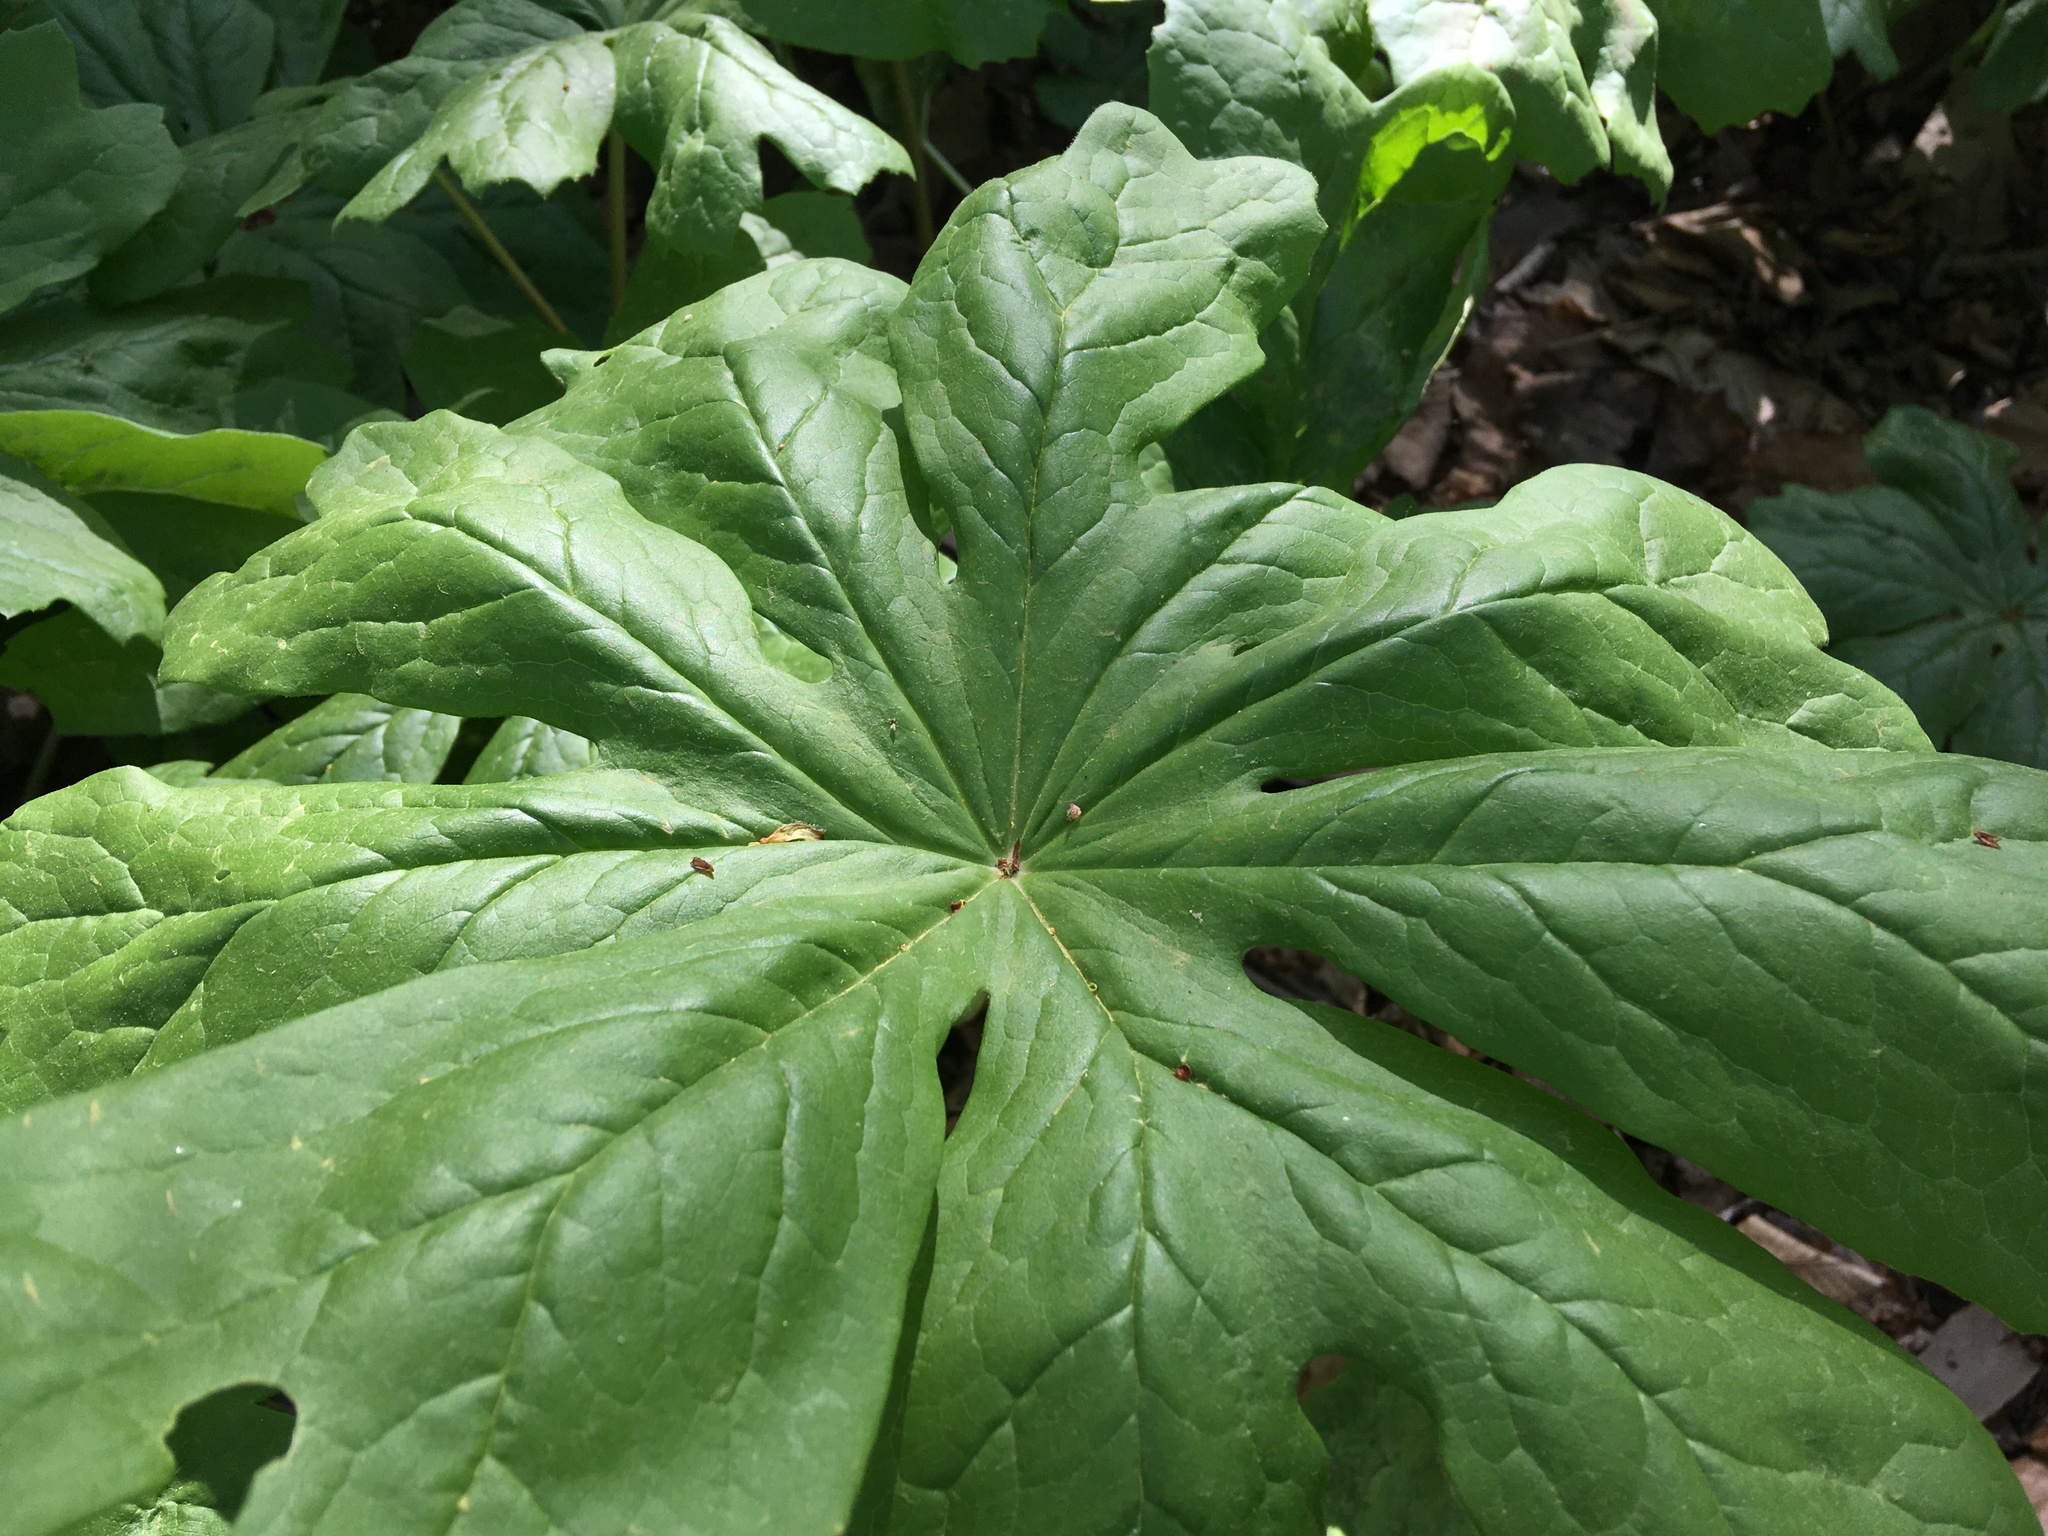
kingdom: Plantae
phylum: Tracheophyta
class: Magnoliopsida
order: Ranunculales
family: Berberidaceae
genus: Podophyllum
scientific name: Podophyllum peltatum
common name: Wild mandrake
